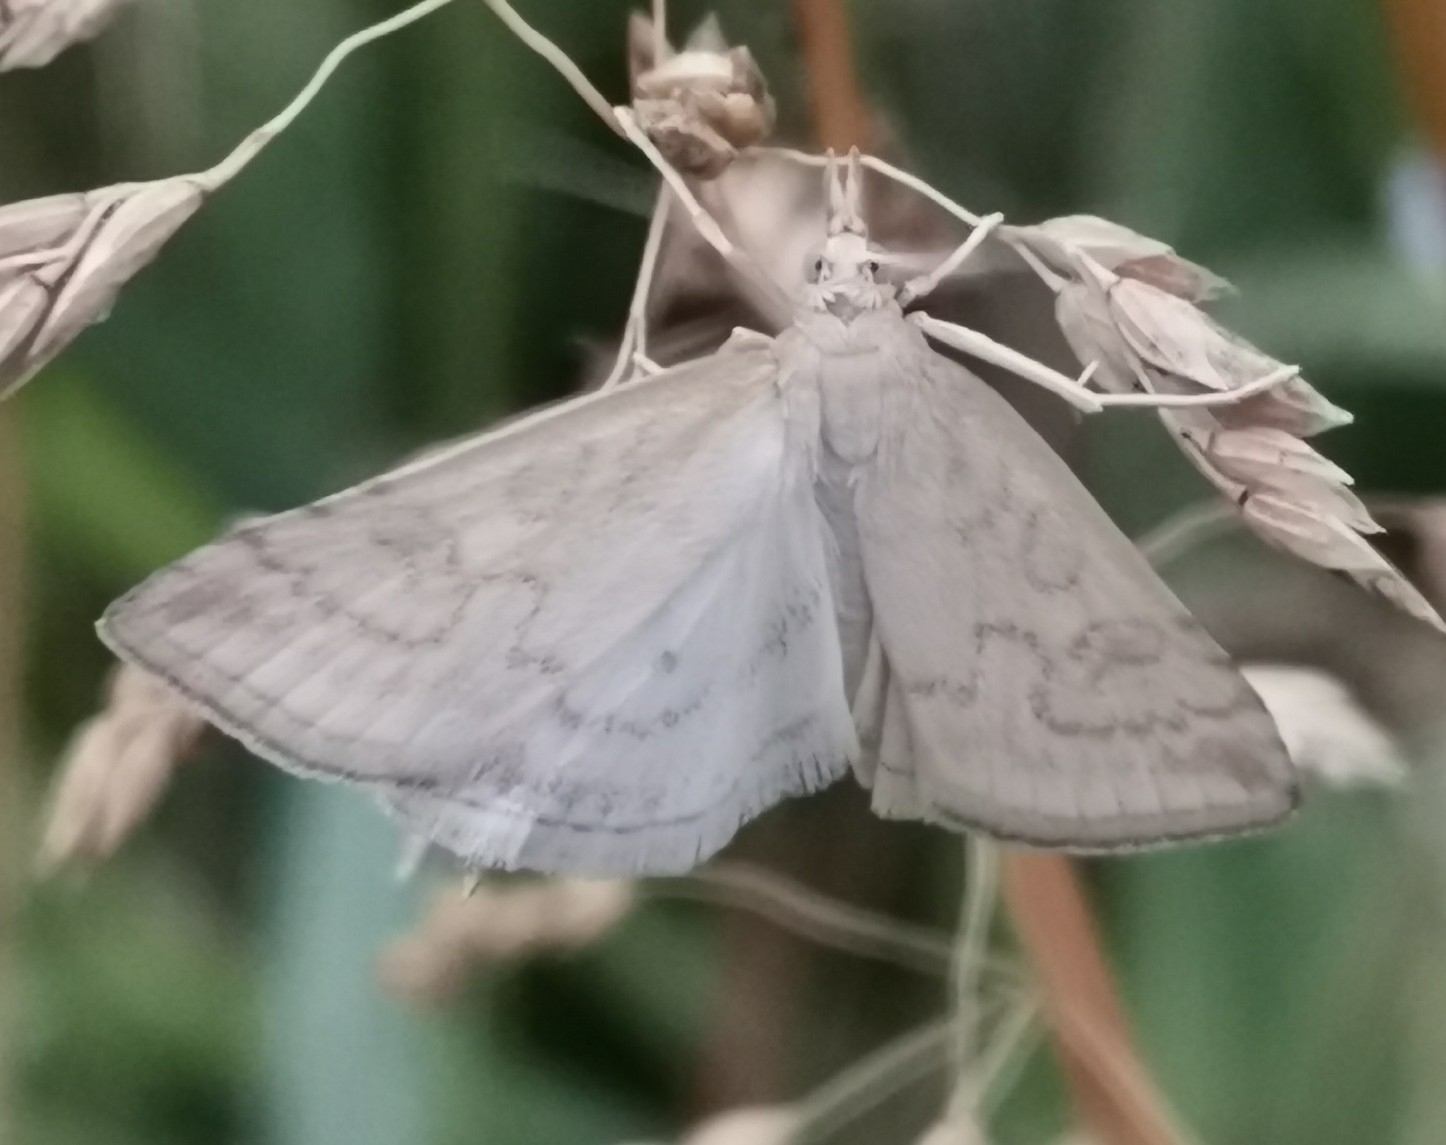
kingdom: Animalia
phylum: Arthropoda
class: Insecta
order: Lepidoptera
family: Crambidae
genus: Udea
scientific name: Udea lutealis
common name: Pale straw pearl
